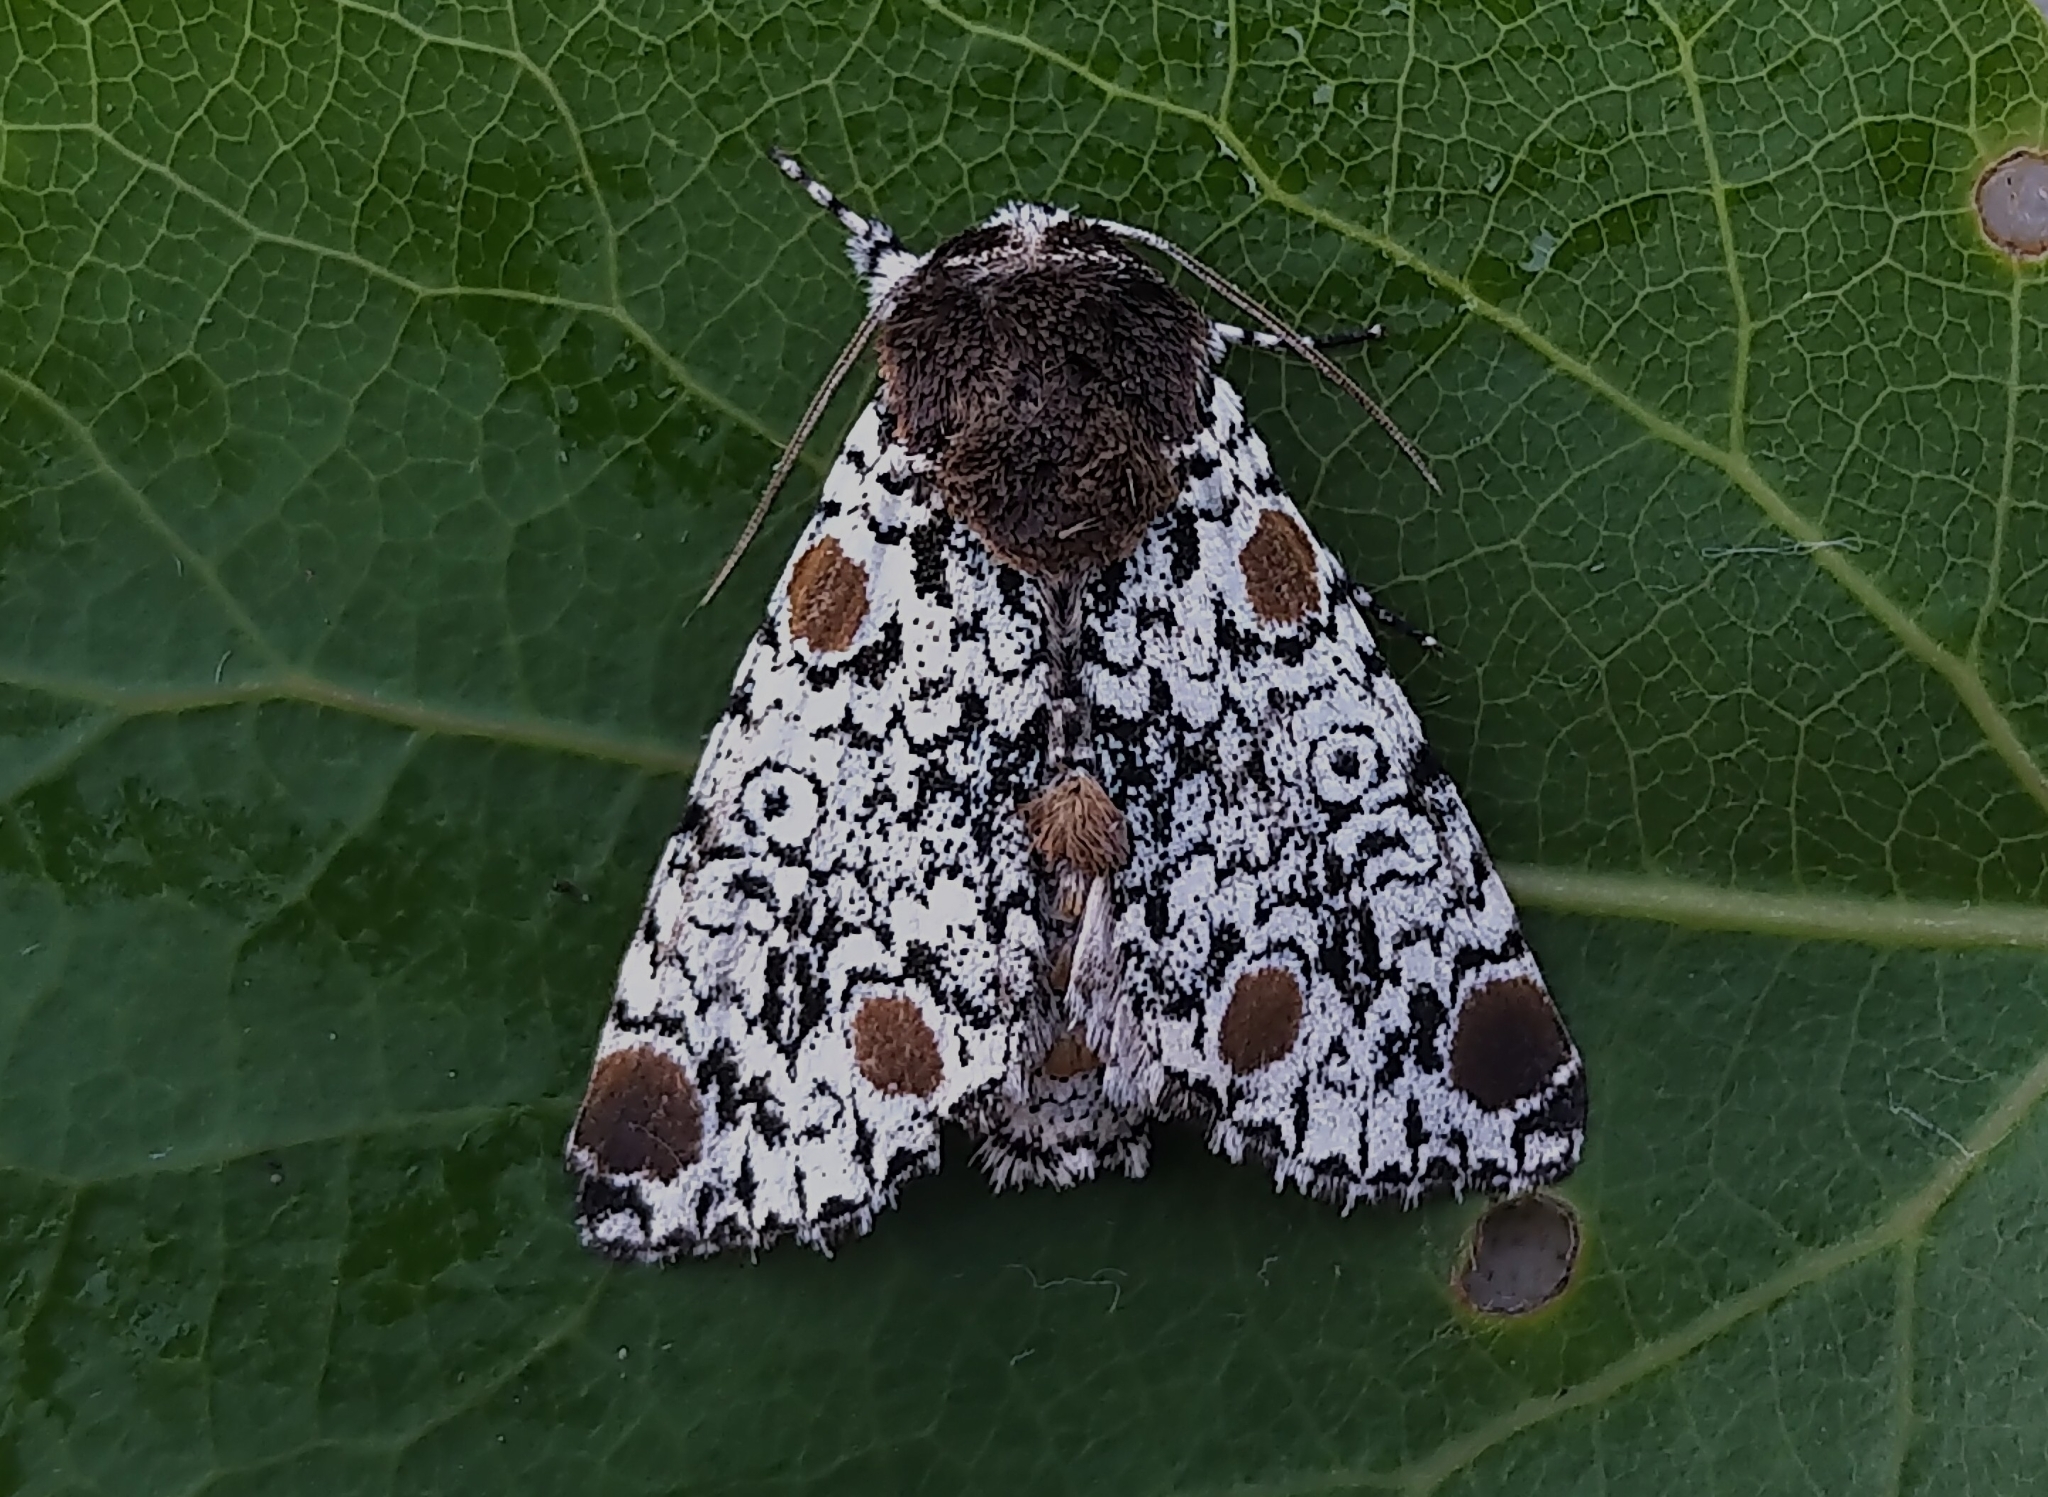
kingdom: Animalia
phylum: Arthropoda
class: Insecta
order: Lepidoptera
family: Noctuidae
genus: Harrisimemna
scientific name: Harrisimemna trisignata
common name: Harris threespot
